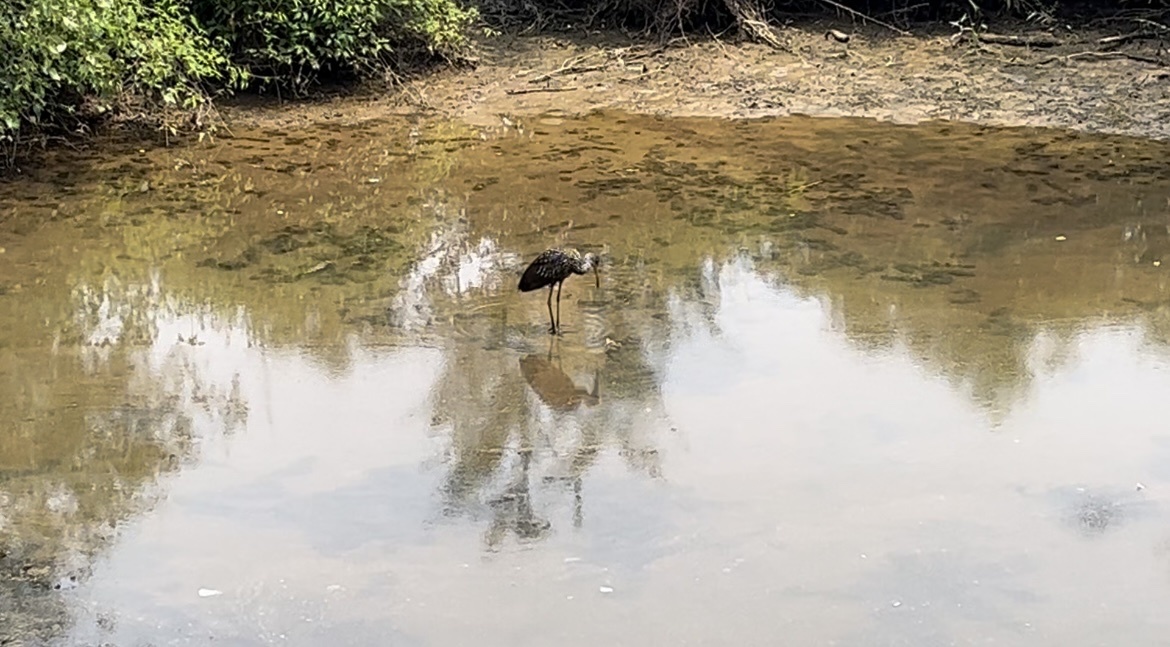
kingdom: Animalia
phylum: Chordata
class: Aves
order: Gruiformes
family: Aramidae
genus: Aramus
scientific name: Aramus guarauna
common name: Limpkin
